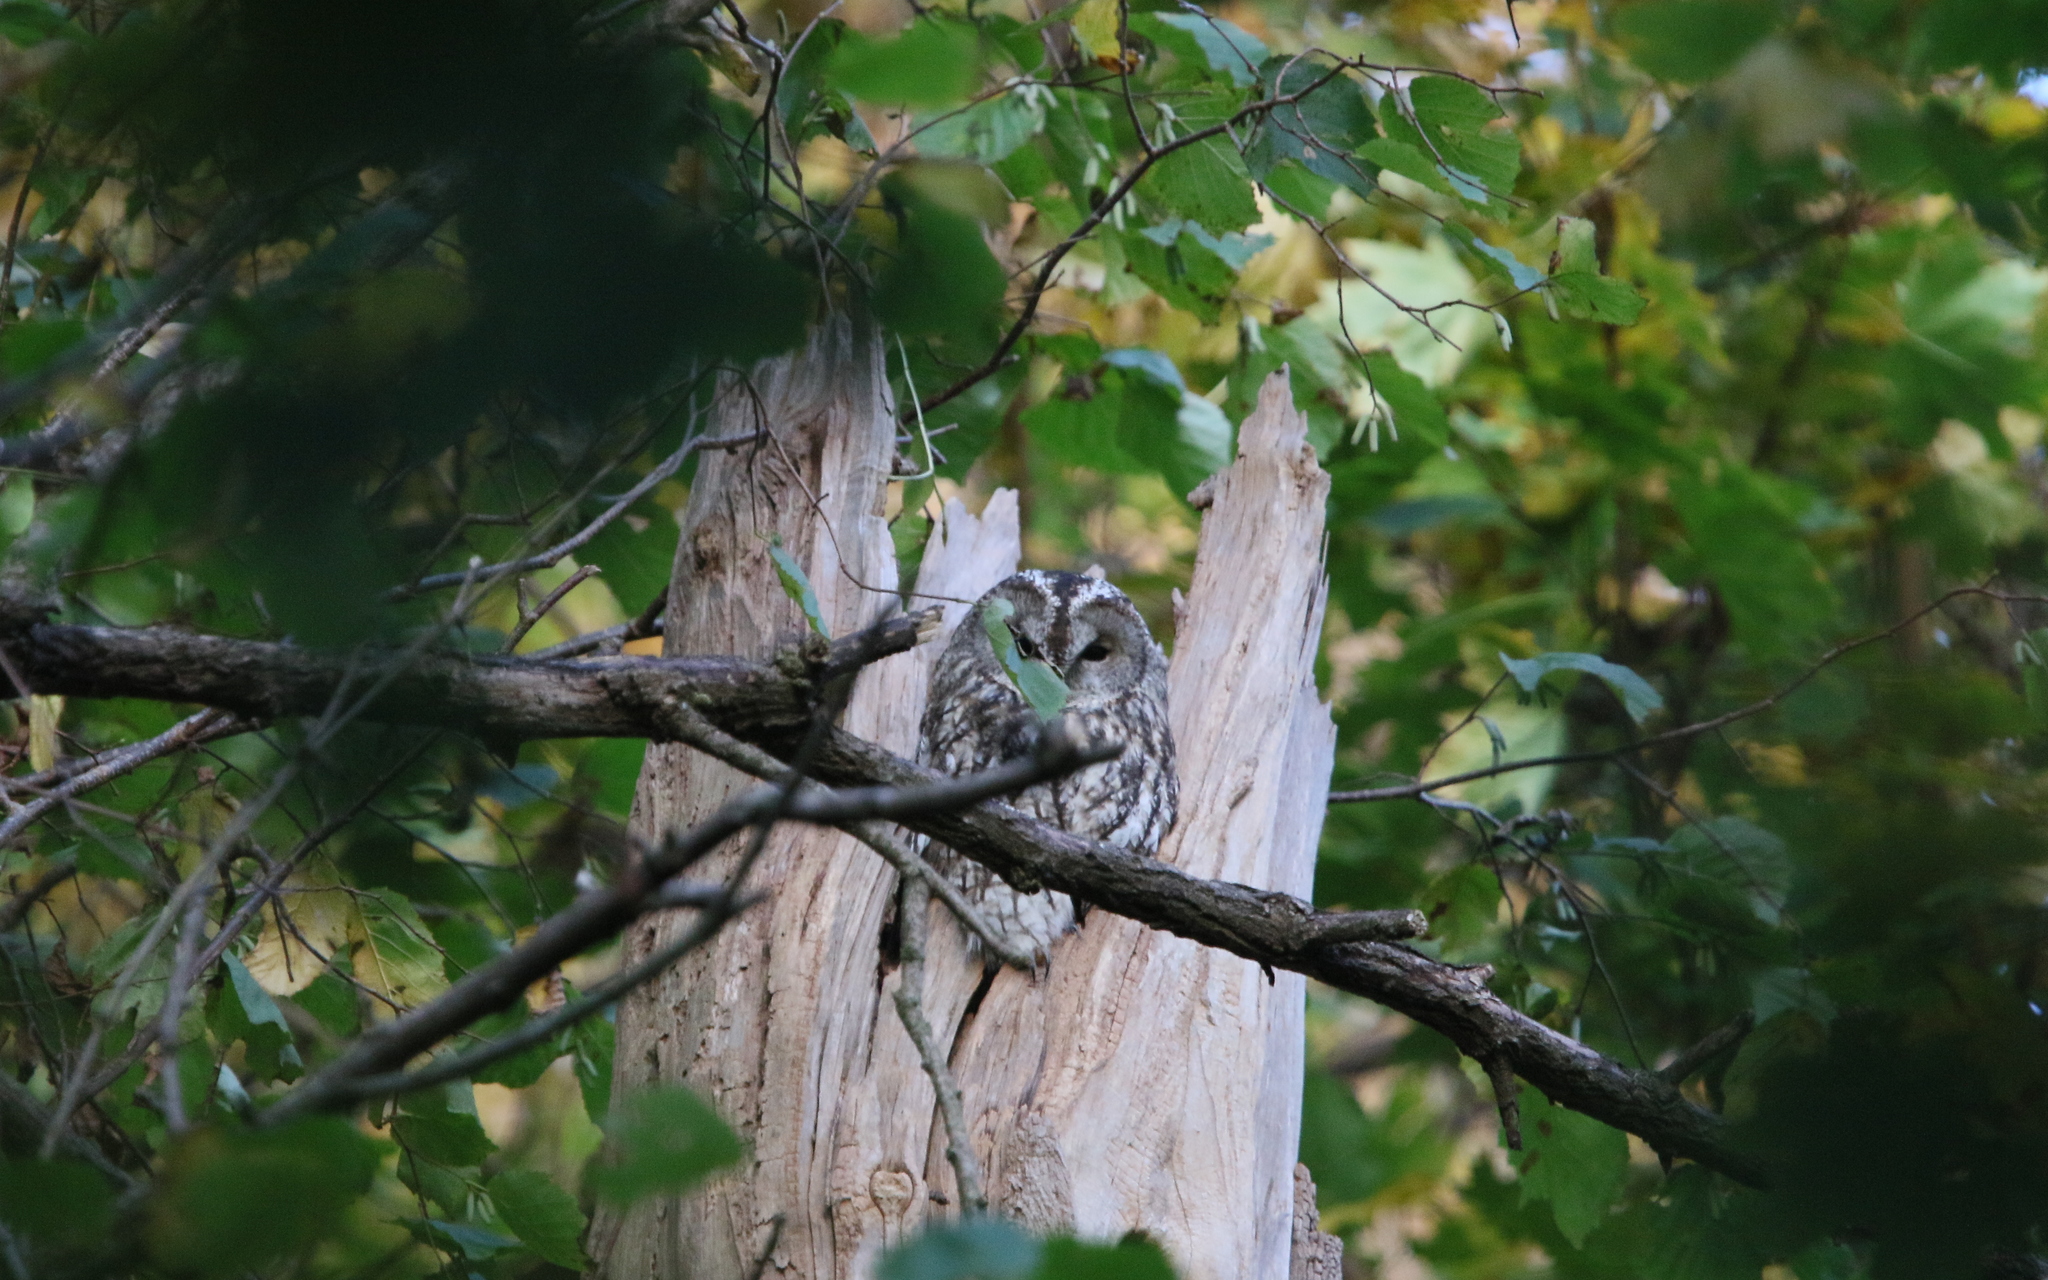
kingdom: Animalia
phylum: Chordata
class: Aves
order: Strigiformes
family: Strigidae
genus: Strix
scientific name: Strix aluco
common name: Tawny owl
